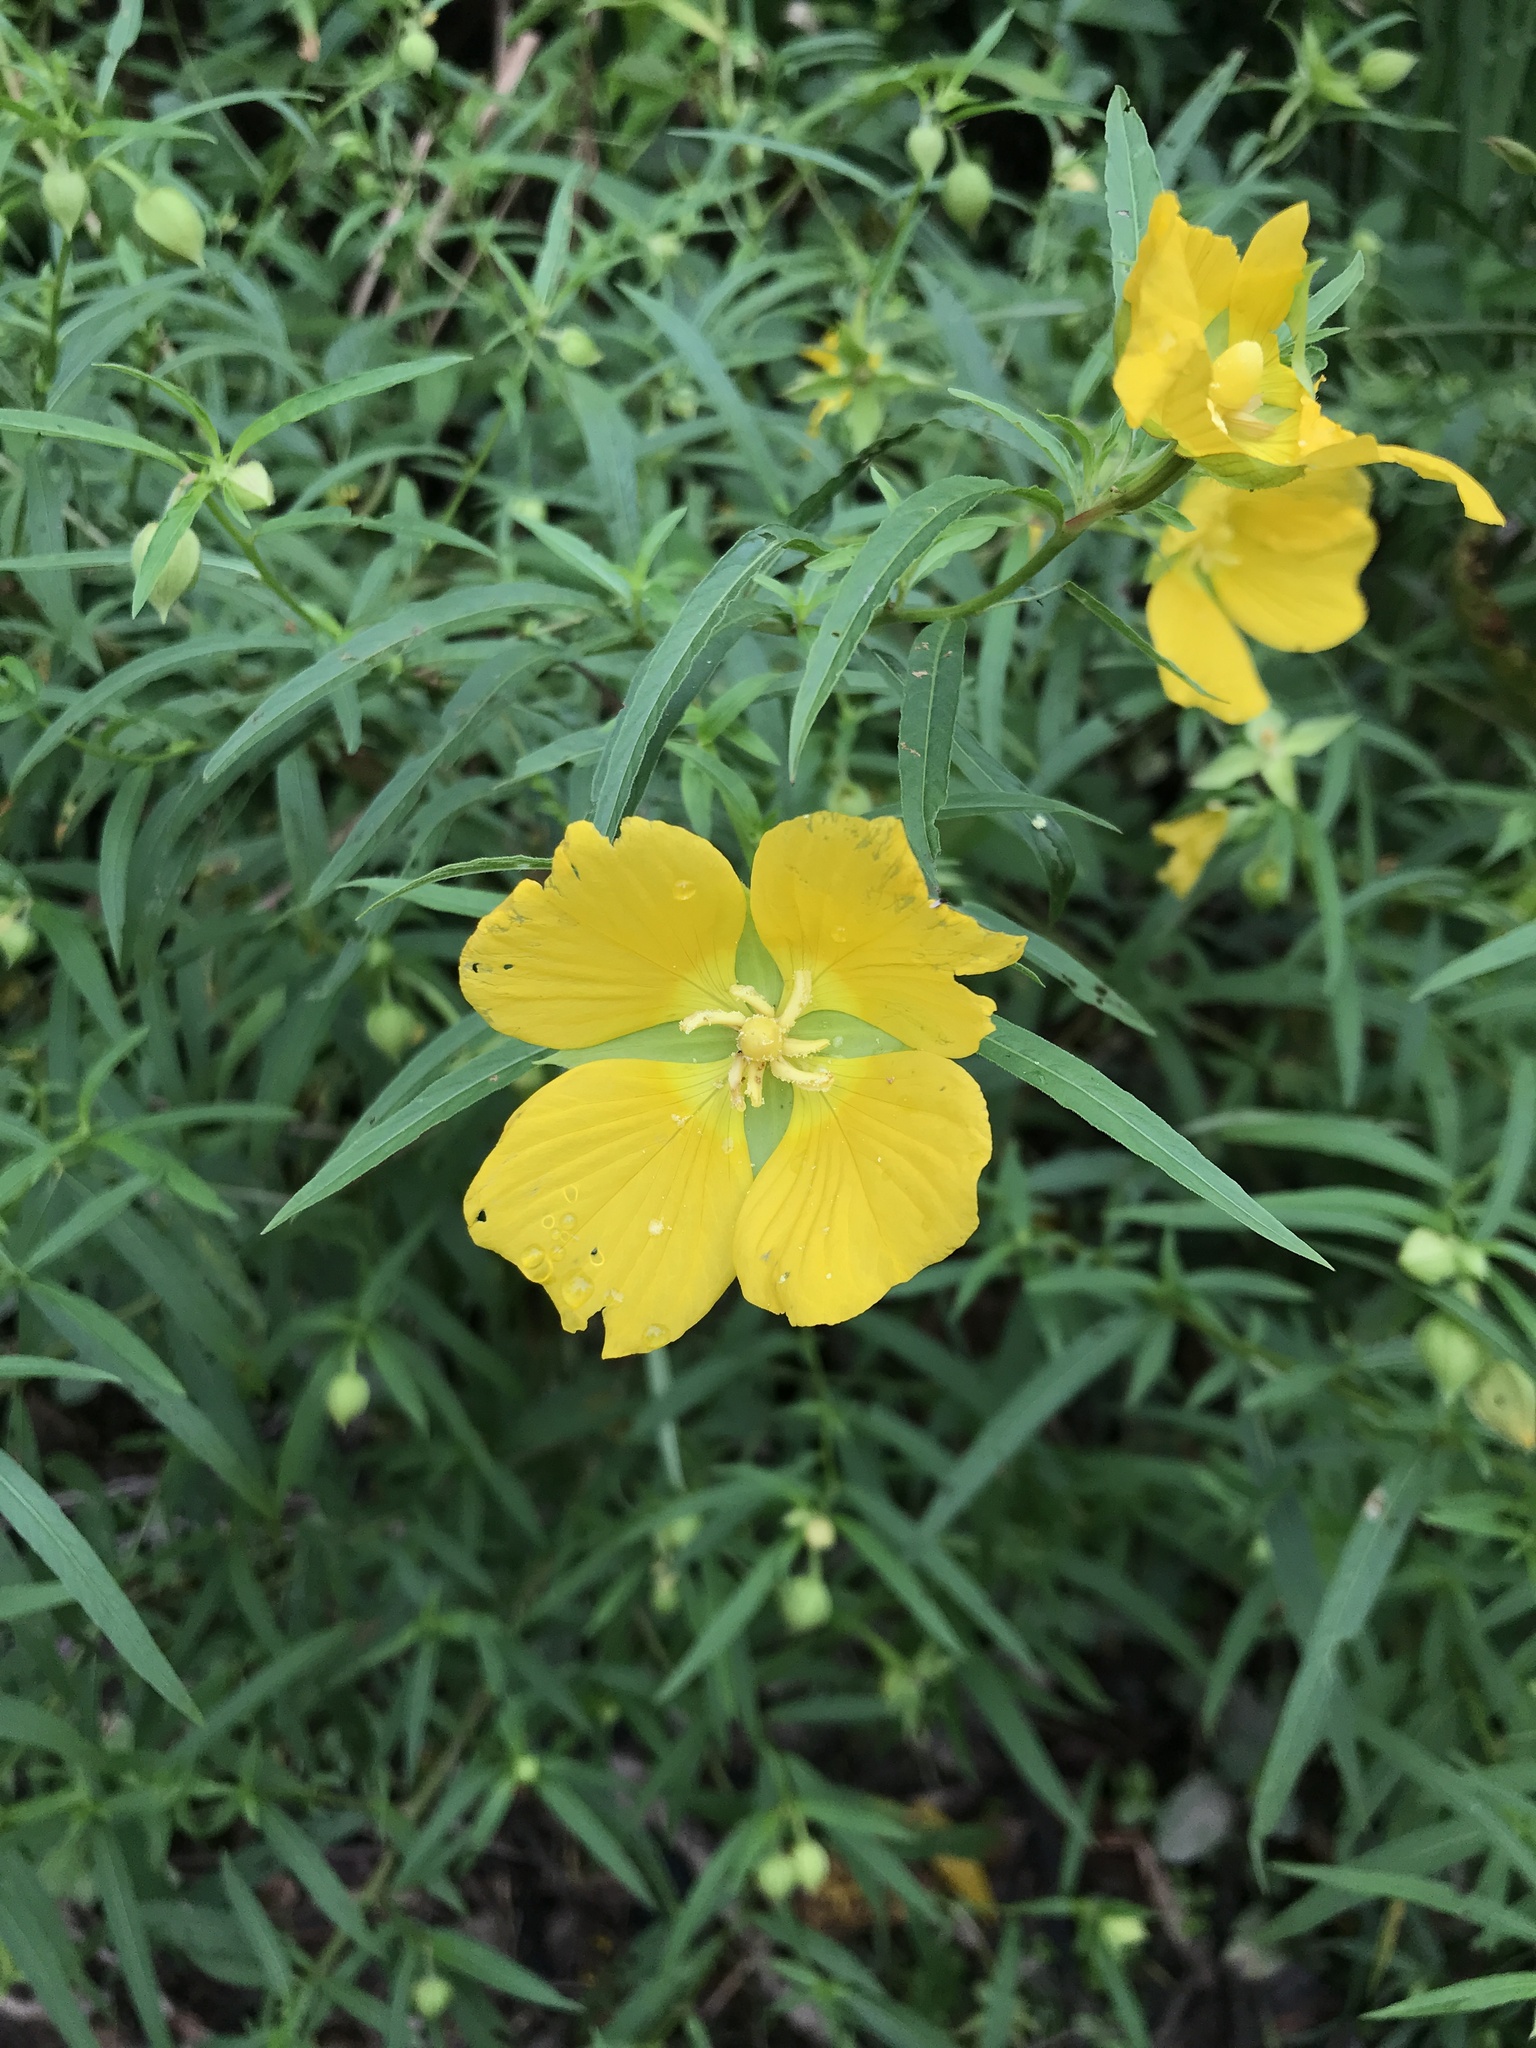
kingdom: Plantae
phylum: Tracheophyta
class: Magnoliopsida
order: Myrtales
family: Onagraceae
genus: Ludwigia
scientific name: Ludwigia bonariensis
